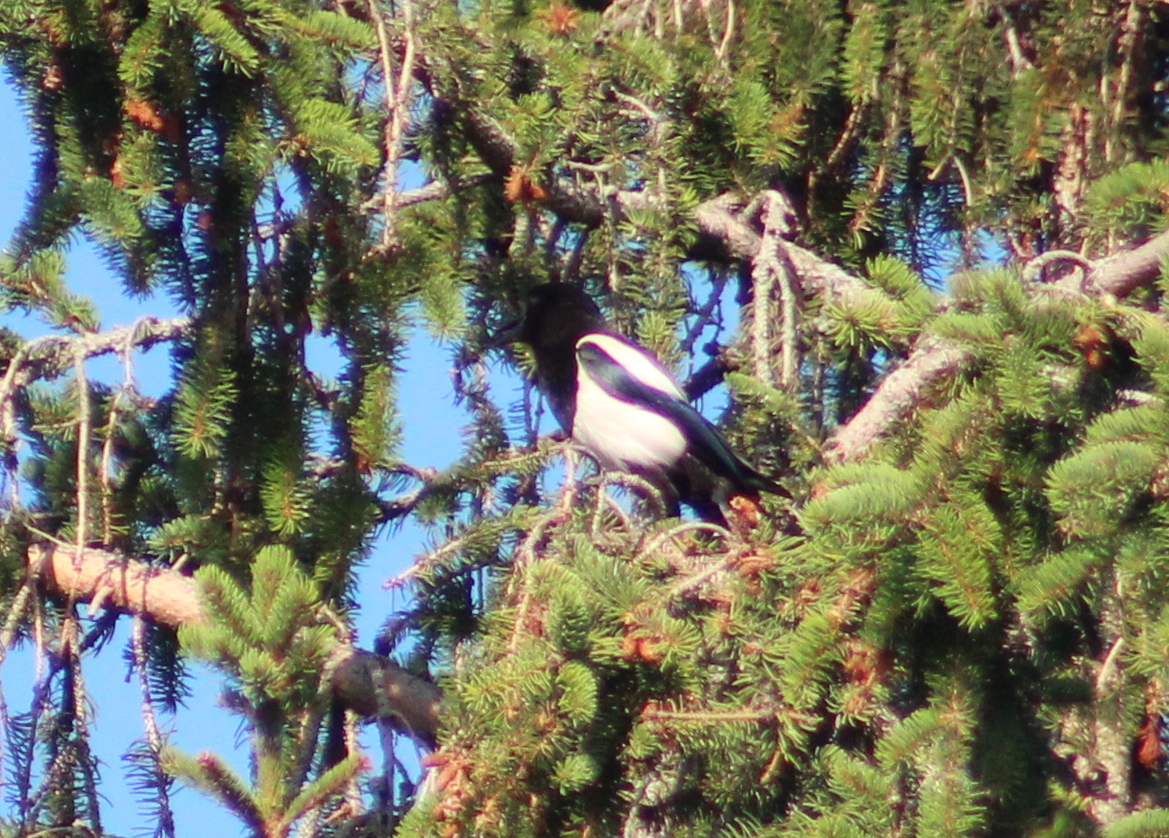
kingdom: Animalia
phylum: Chordata
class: Aves
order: Passeriformes
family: Corvidae
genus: Pica
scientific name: Pica pica
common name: Eurasian magpie
